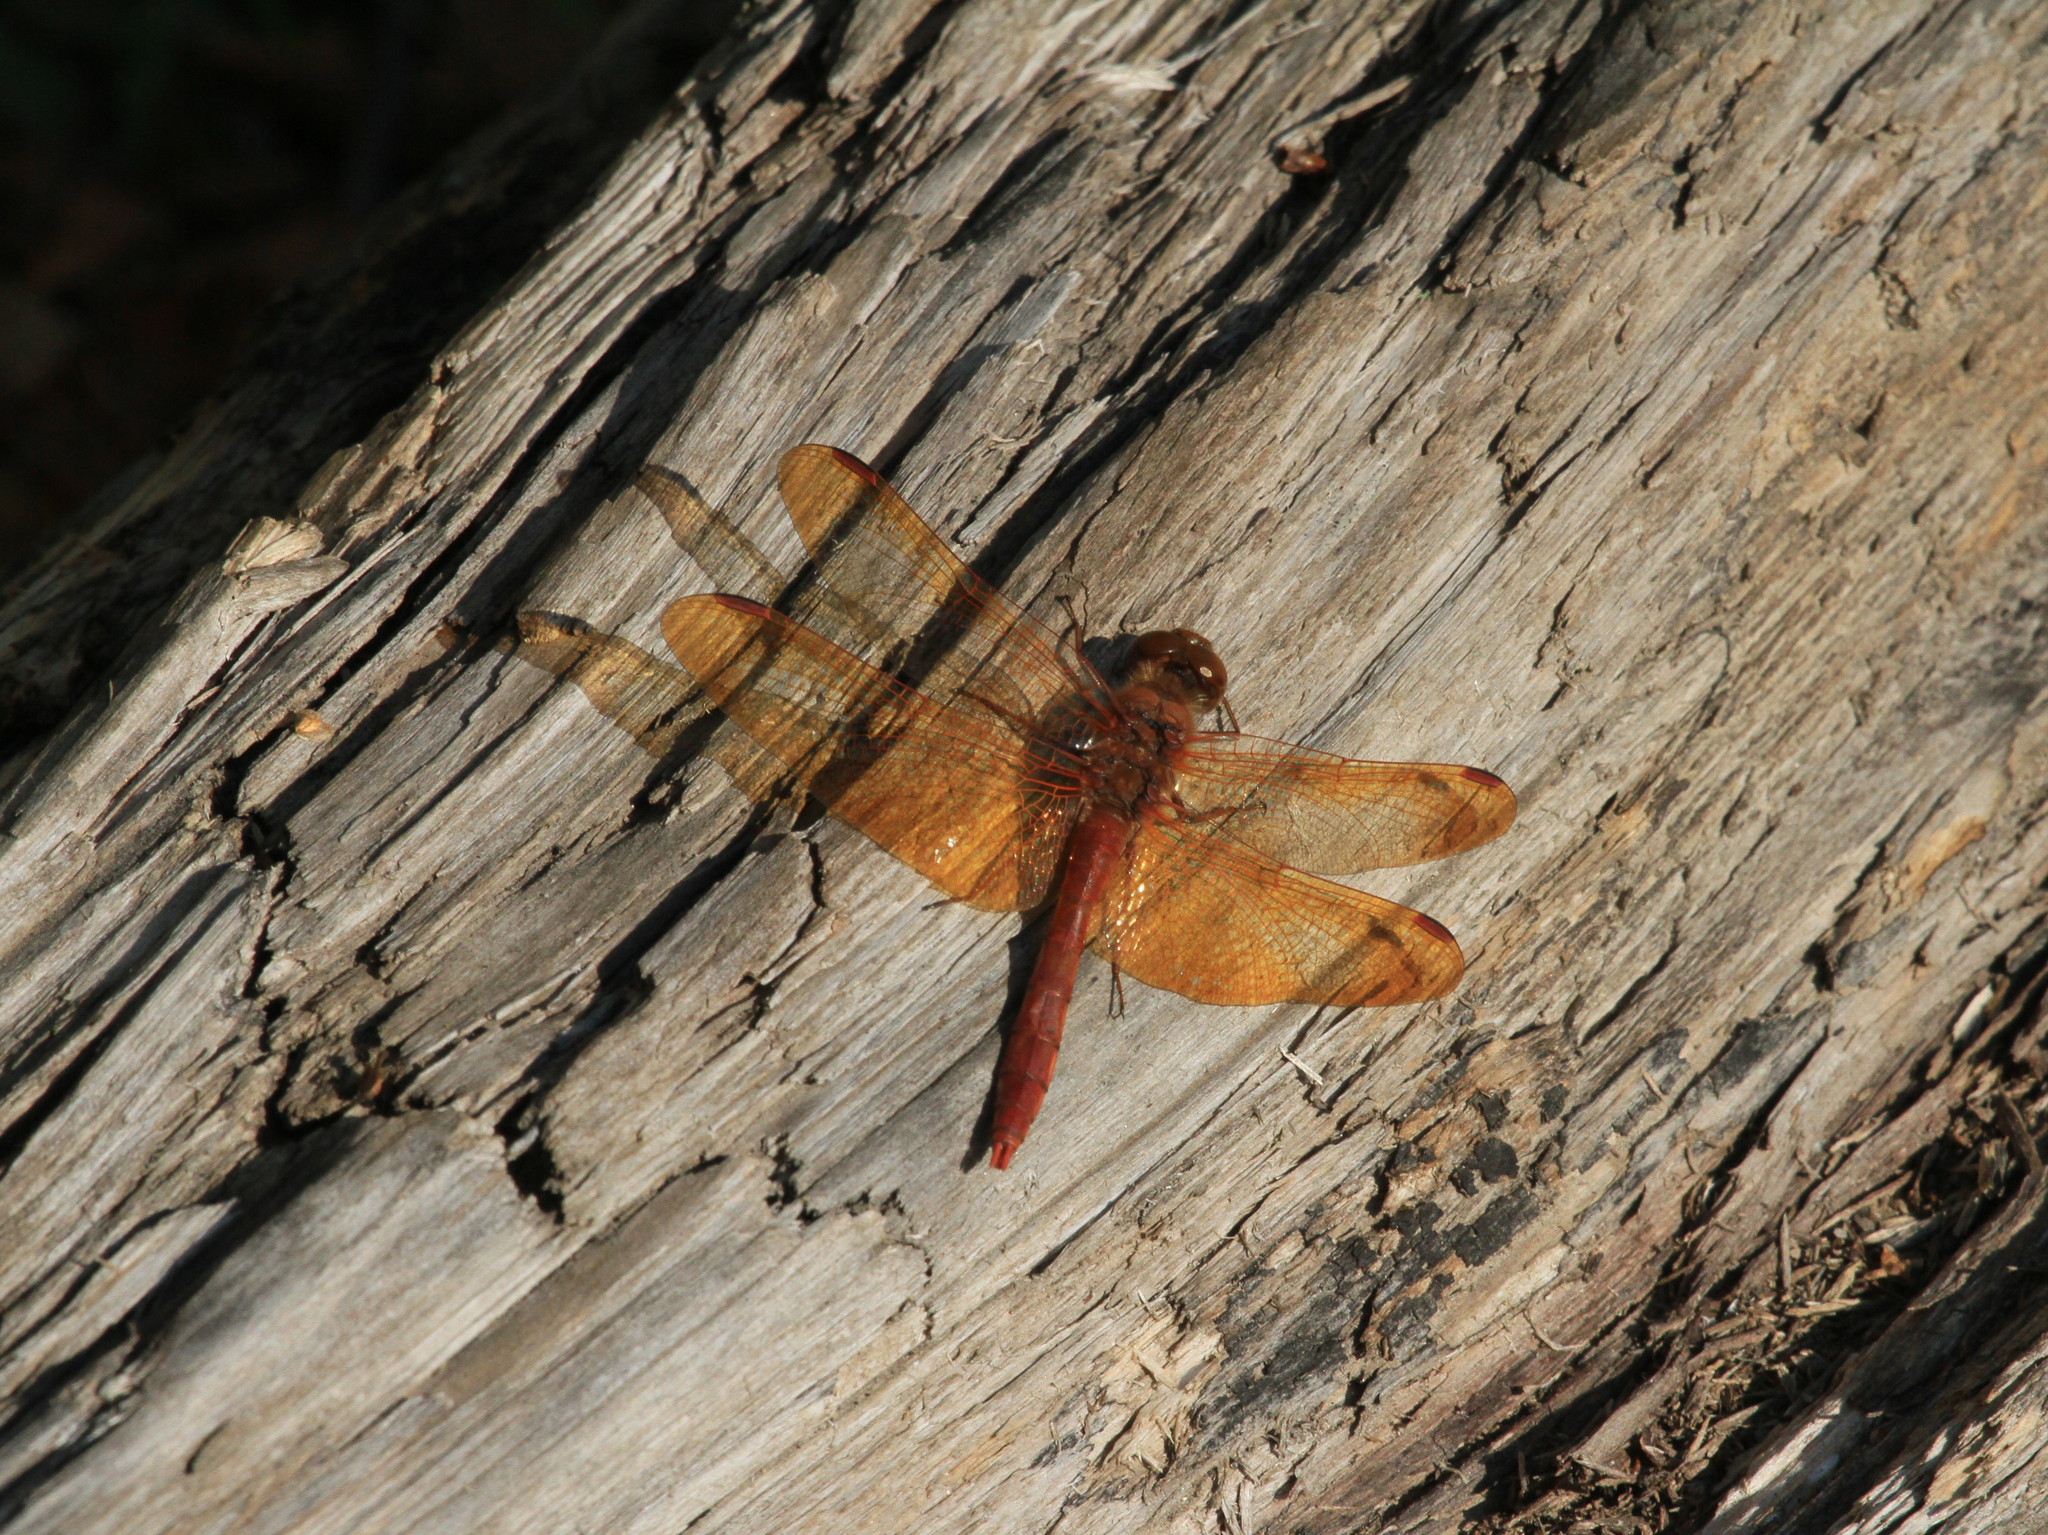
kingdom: Animalia
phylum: Arthropoda
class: Insecta
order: Odonata
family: Libellulidae
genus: Sympetrum
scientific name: Sympetrum croceolum
